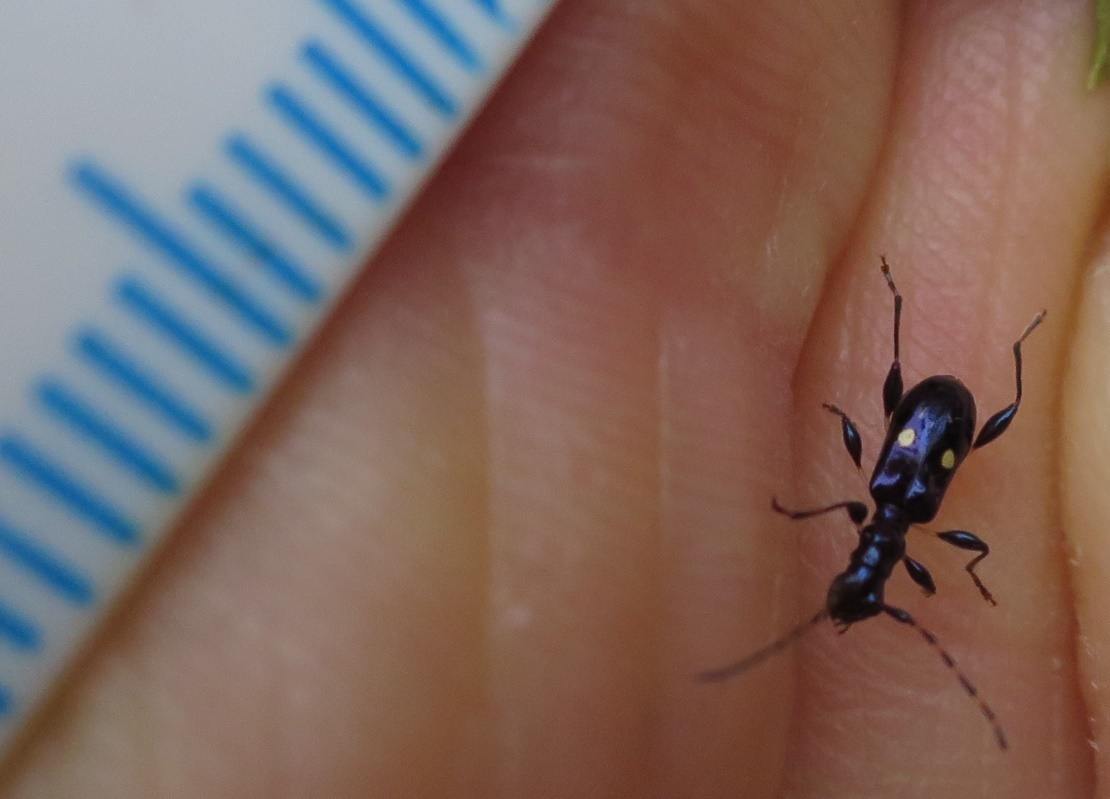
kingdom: Animalia
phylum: Arthropoda
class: Insecta
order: Coleoptera
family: Cerambycidae
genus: Zorion
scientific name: Zorion batesi
